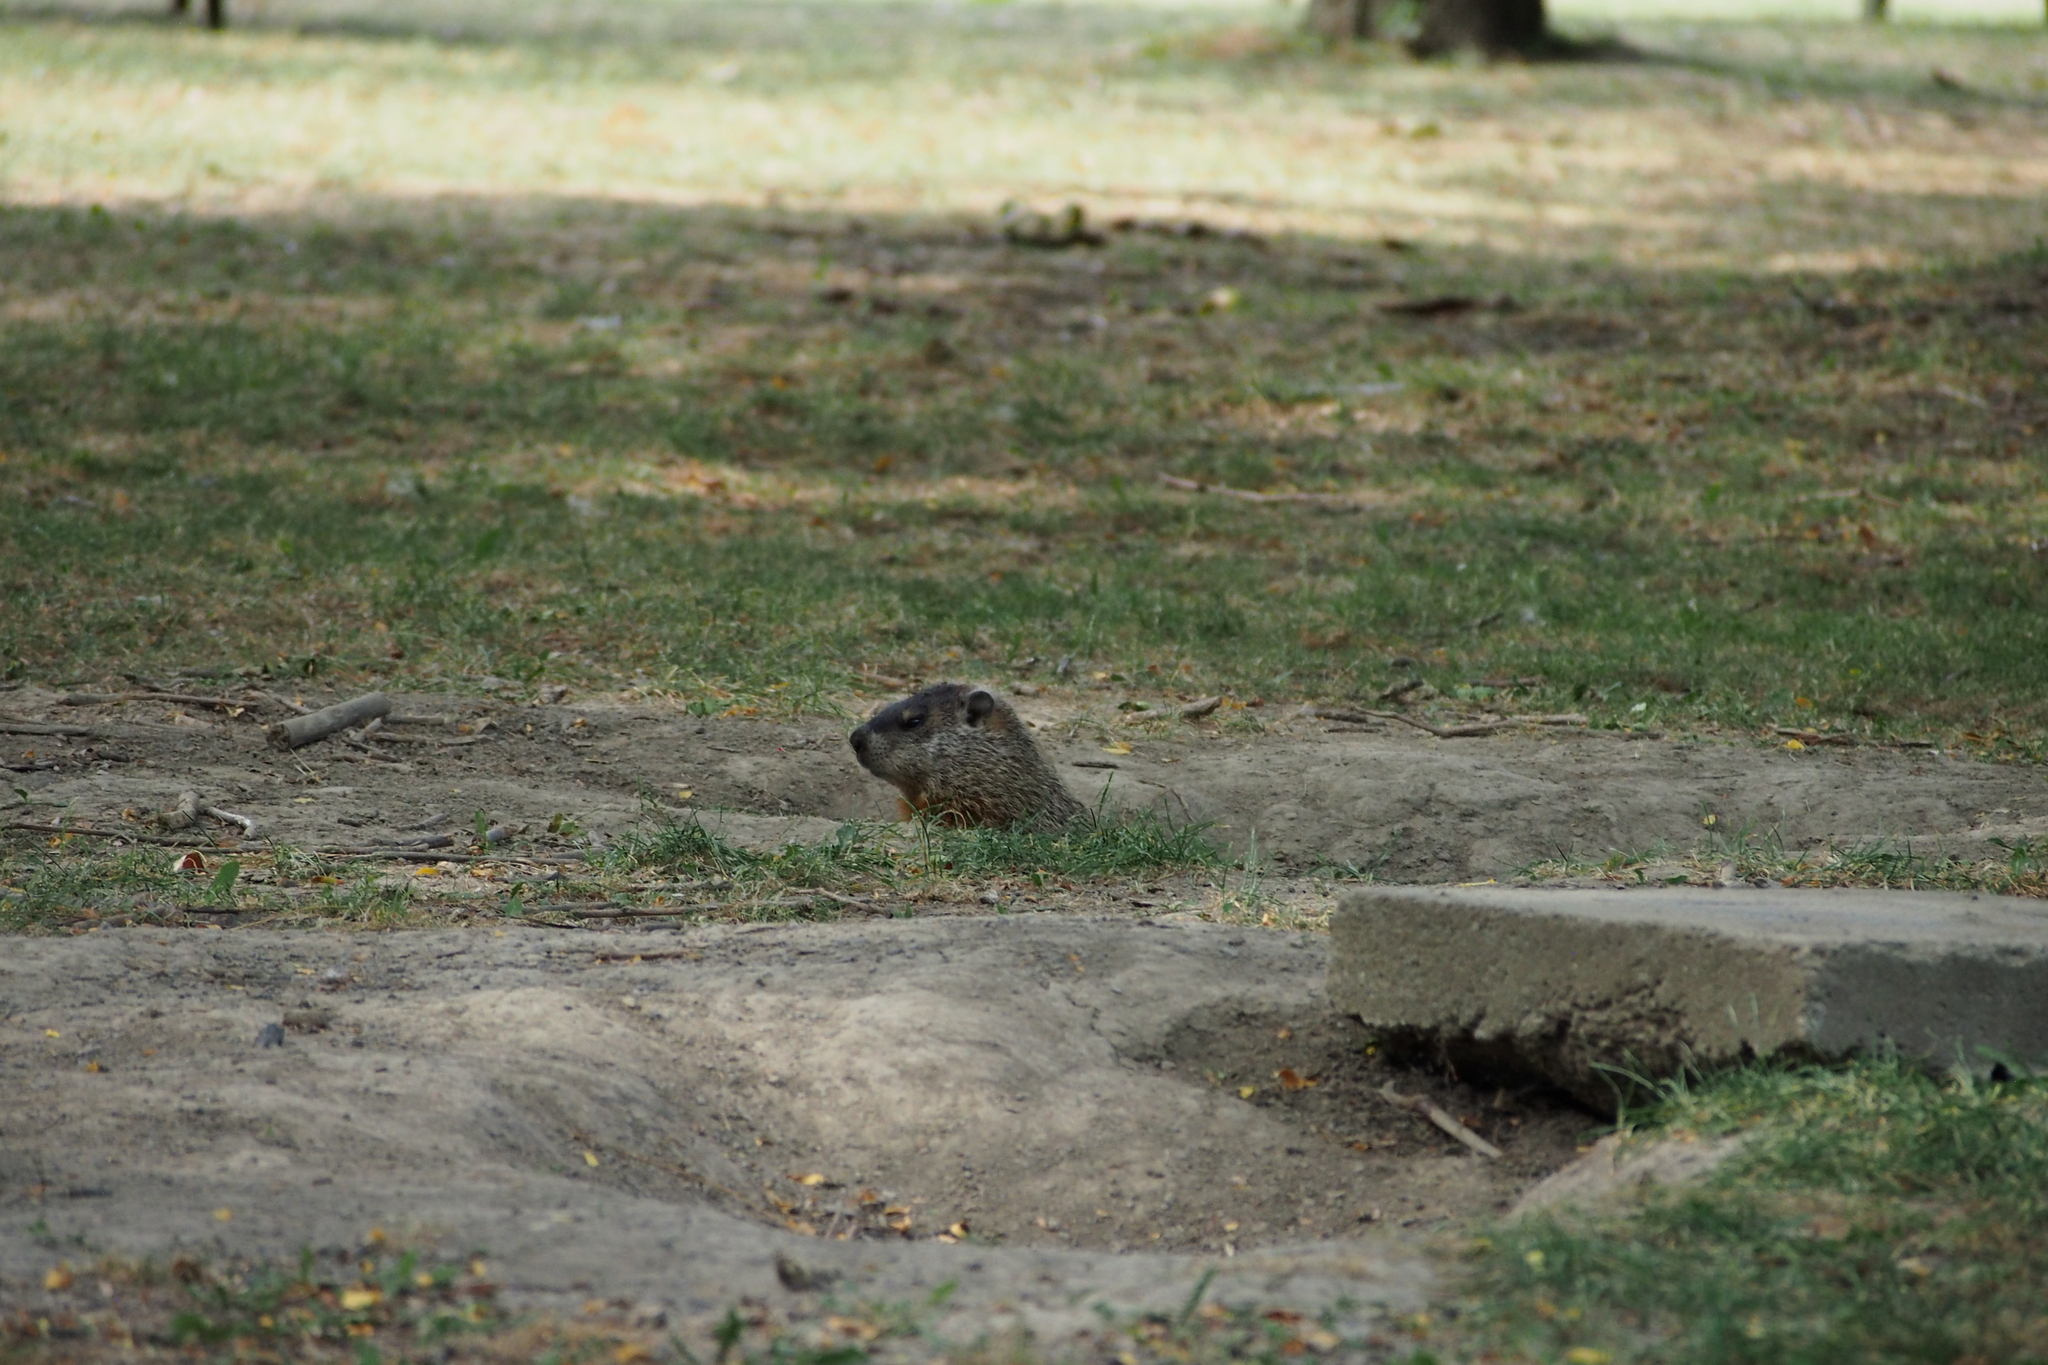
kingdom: Animalia
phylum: Chordata
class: Mammalia
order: Rodentia
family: Sciuridae
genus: Marmota
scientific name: Marmota monax
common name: Groundhog
